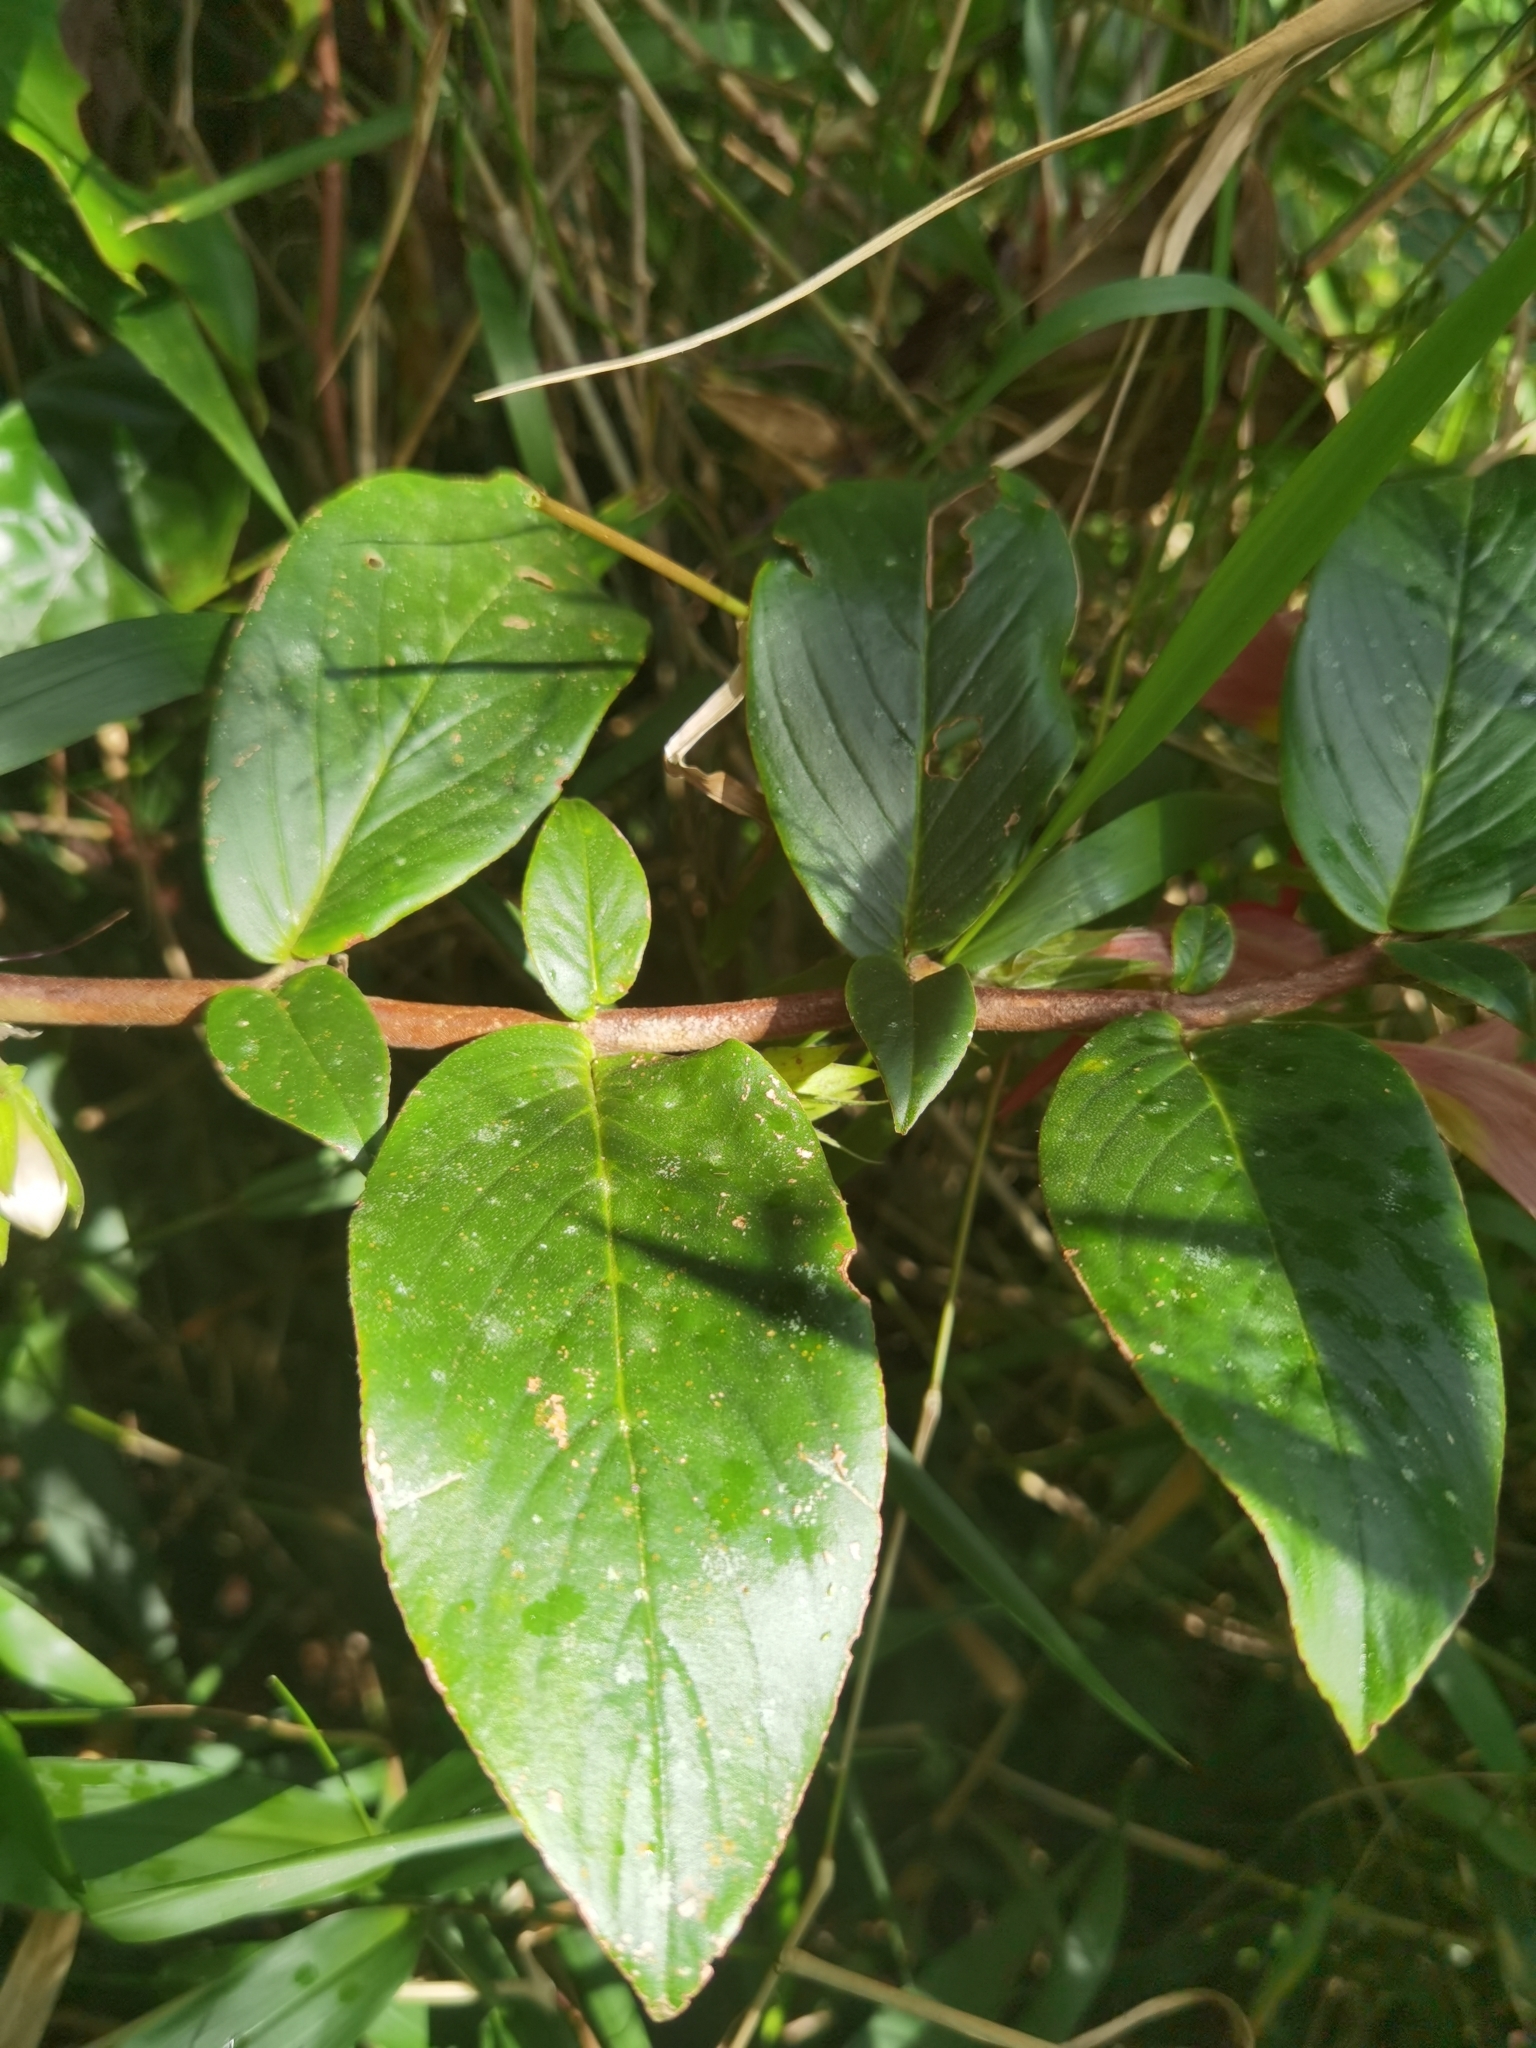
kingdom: Plantae
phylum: Tracheophyta
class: Magnoliopsida
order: Lamiales
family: Gesneriaceae
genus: Columnea
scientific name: Columnea nicaraguensis
